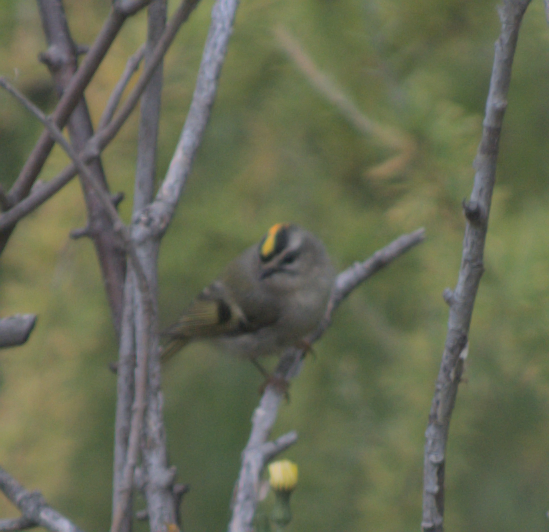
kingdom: Animalia
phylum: Chordata
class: Aves
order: Passeriformes
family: Regulidae
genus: Regulus
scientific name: Regulus satrapa
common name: Golden-crowned kinglet
